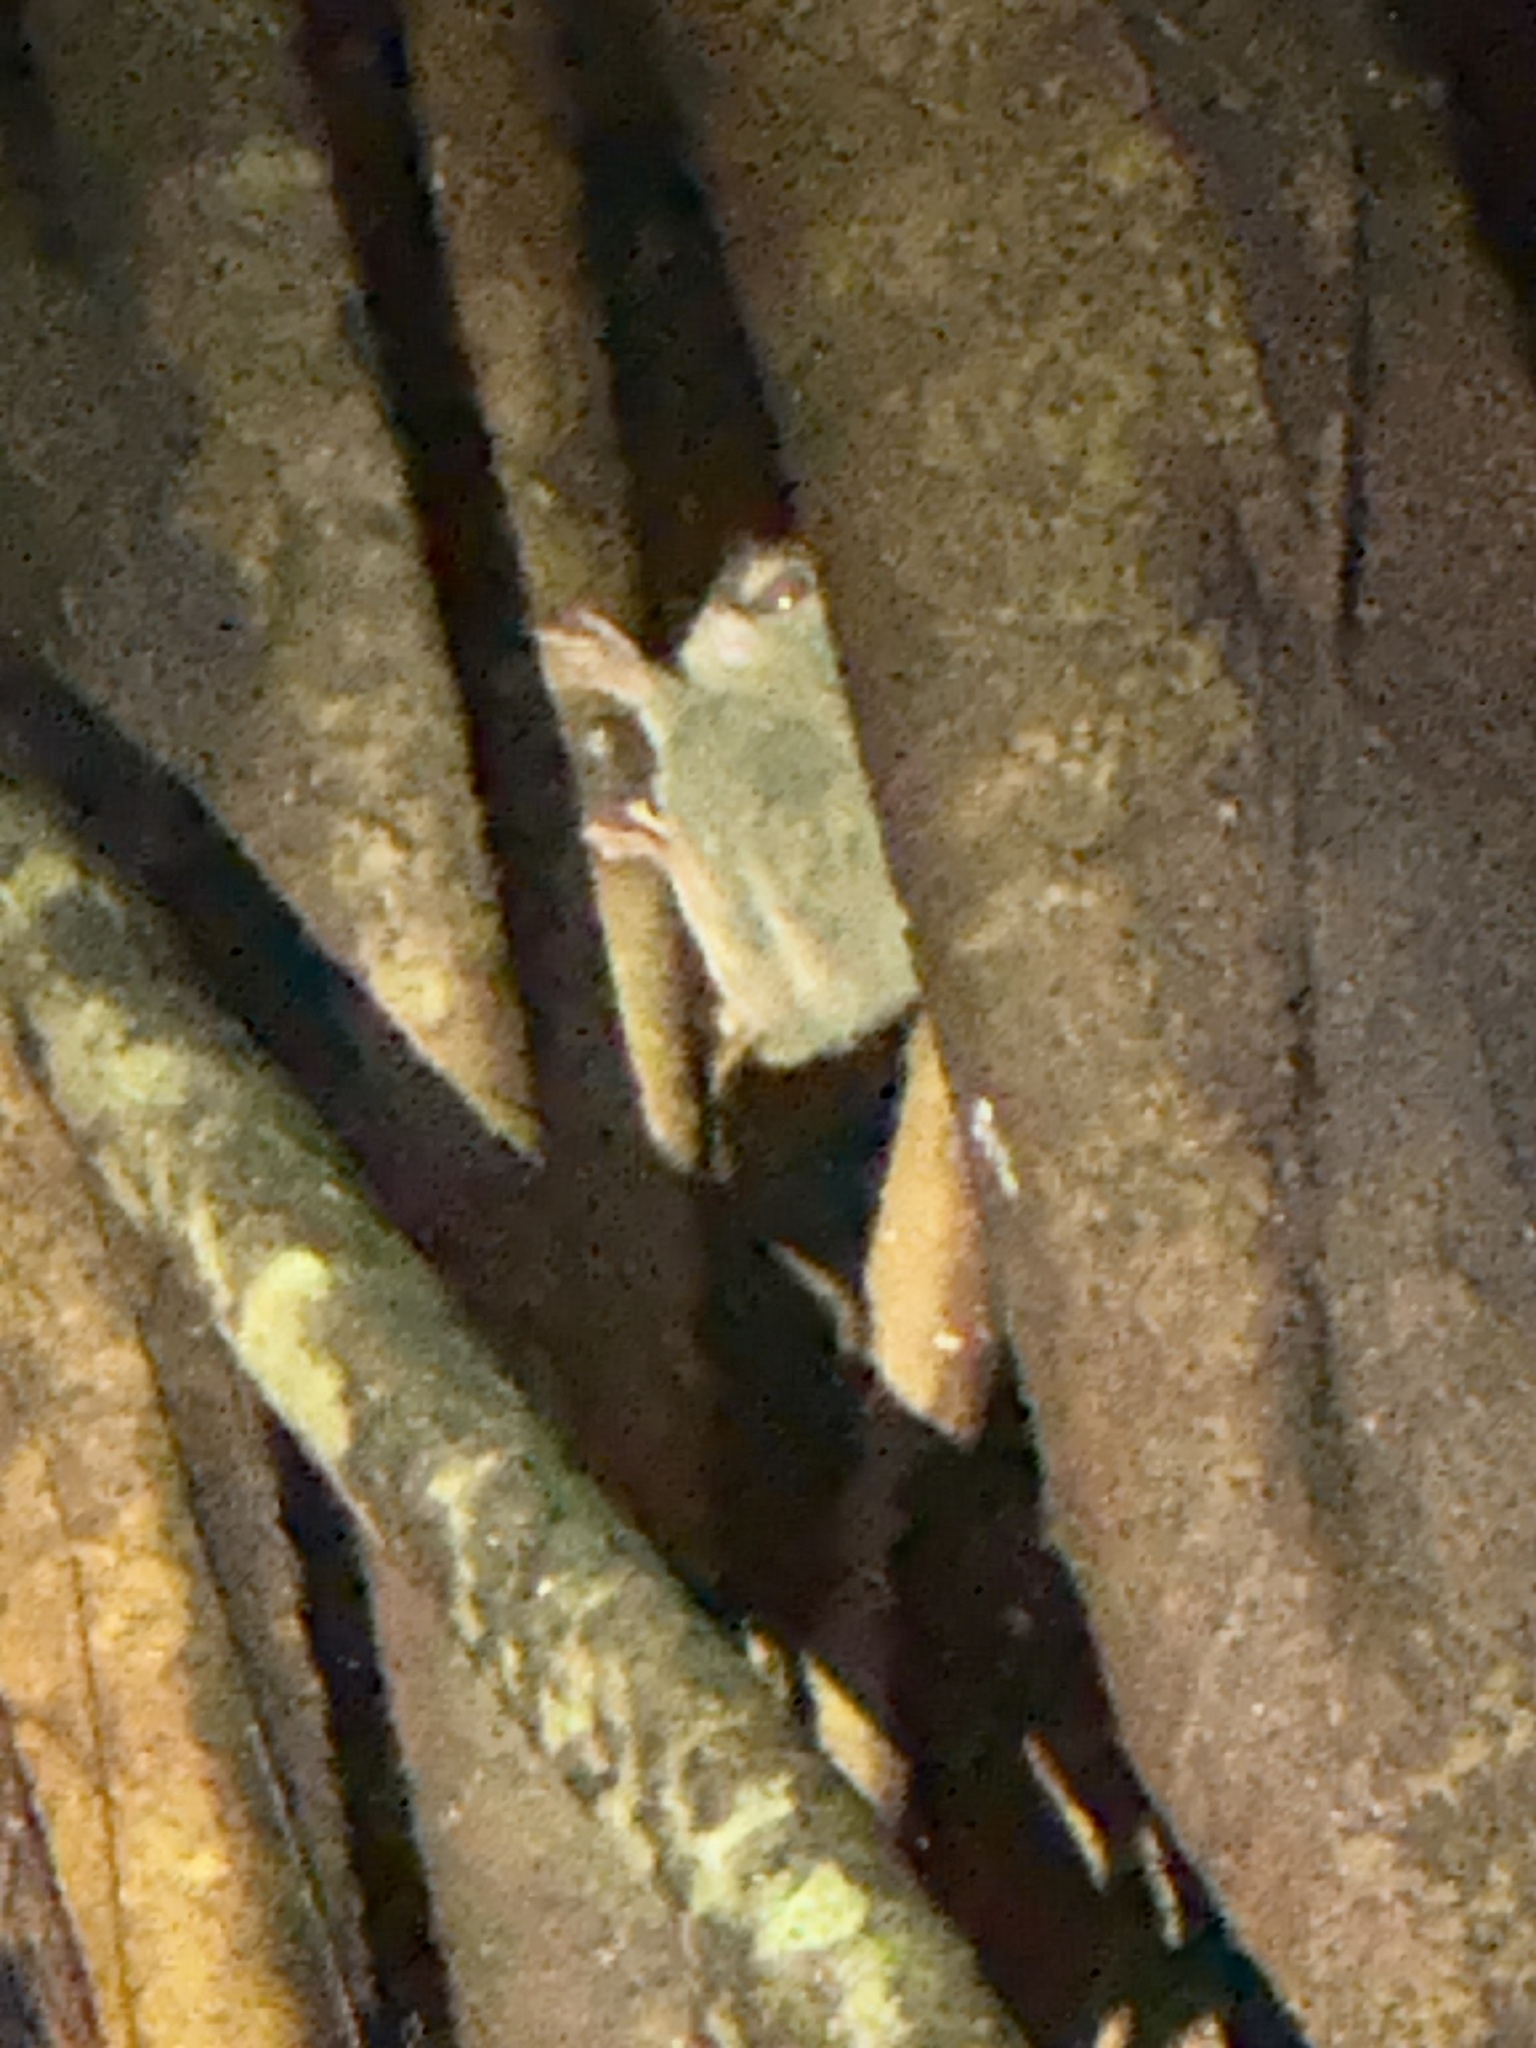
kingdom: Animalia
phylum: Chordata
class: Mammalia
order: Primates
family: Tarsiidae
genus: Tarsius
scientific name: Tarsius spectrumgurskyae
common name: Gursky's spectral tarsier
